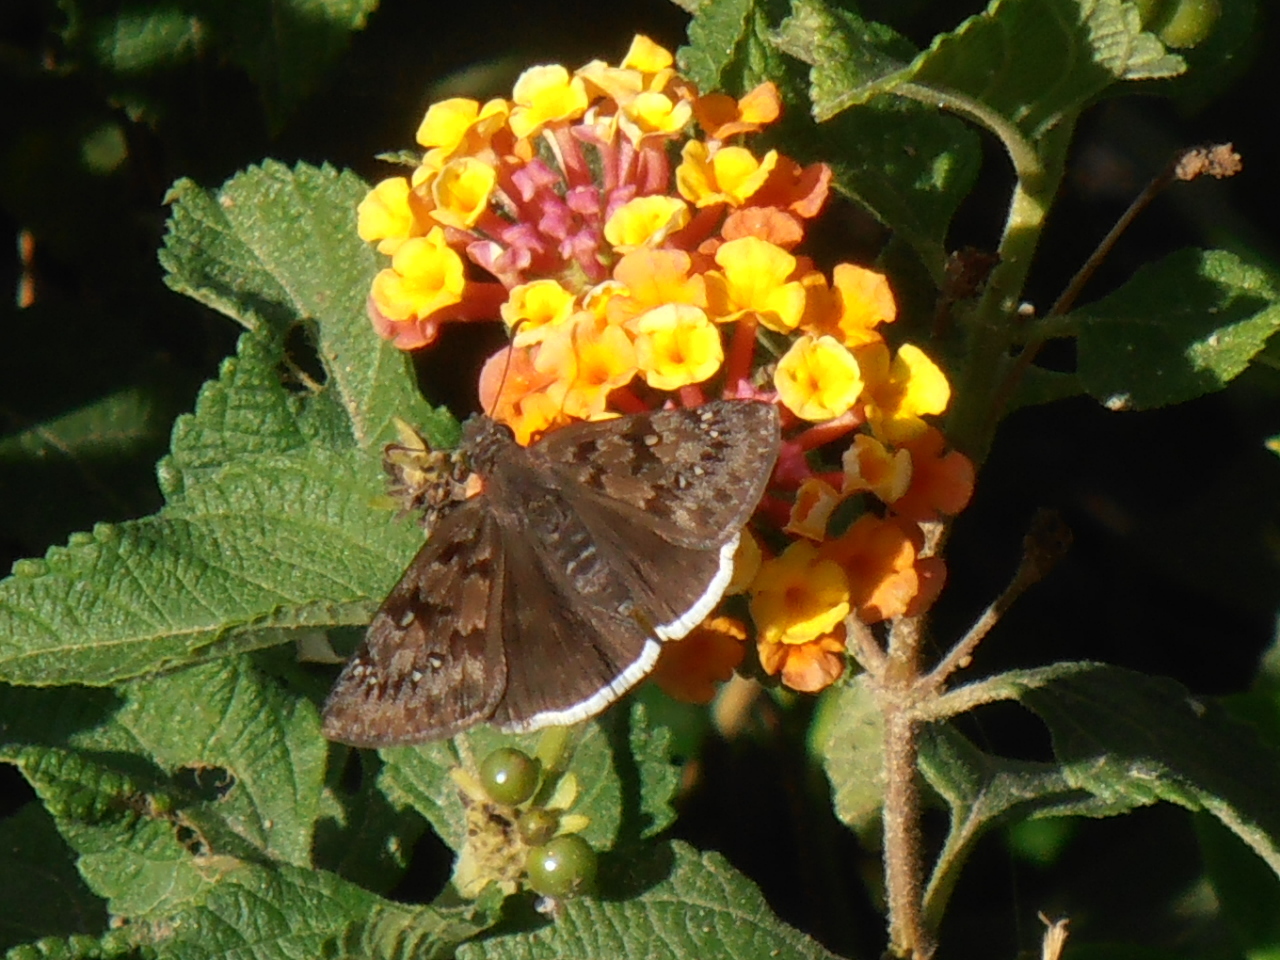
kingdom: Animalia
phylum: Arthropoda
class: Insecta
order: Lepidoptera
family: Hesperiidae
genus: Erynnis
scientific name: Erynnis tristis
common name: Mournful duskywing
